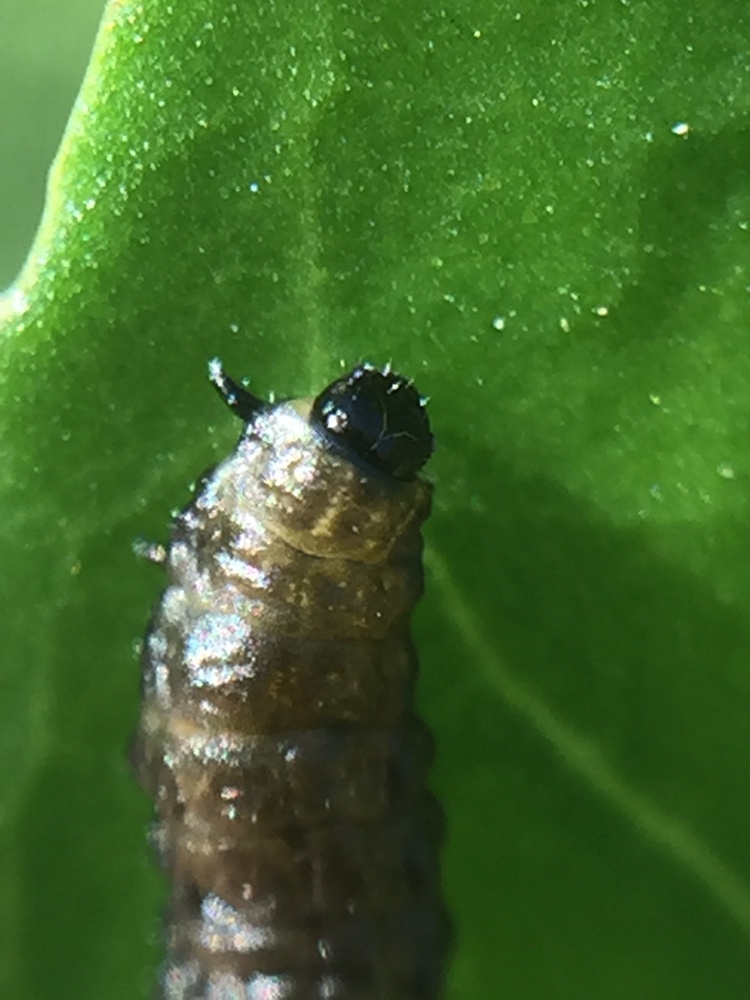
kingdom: Animalia
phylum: Arthropoda
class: Insecta
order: Coleoptera
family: Chrysomelidae
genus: Agasicles
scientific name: Agasicles hygrophila
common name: Alligatorweed flea beetle
